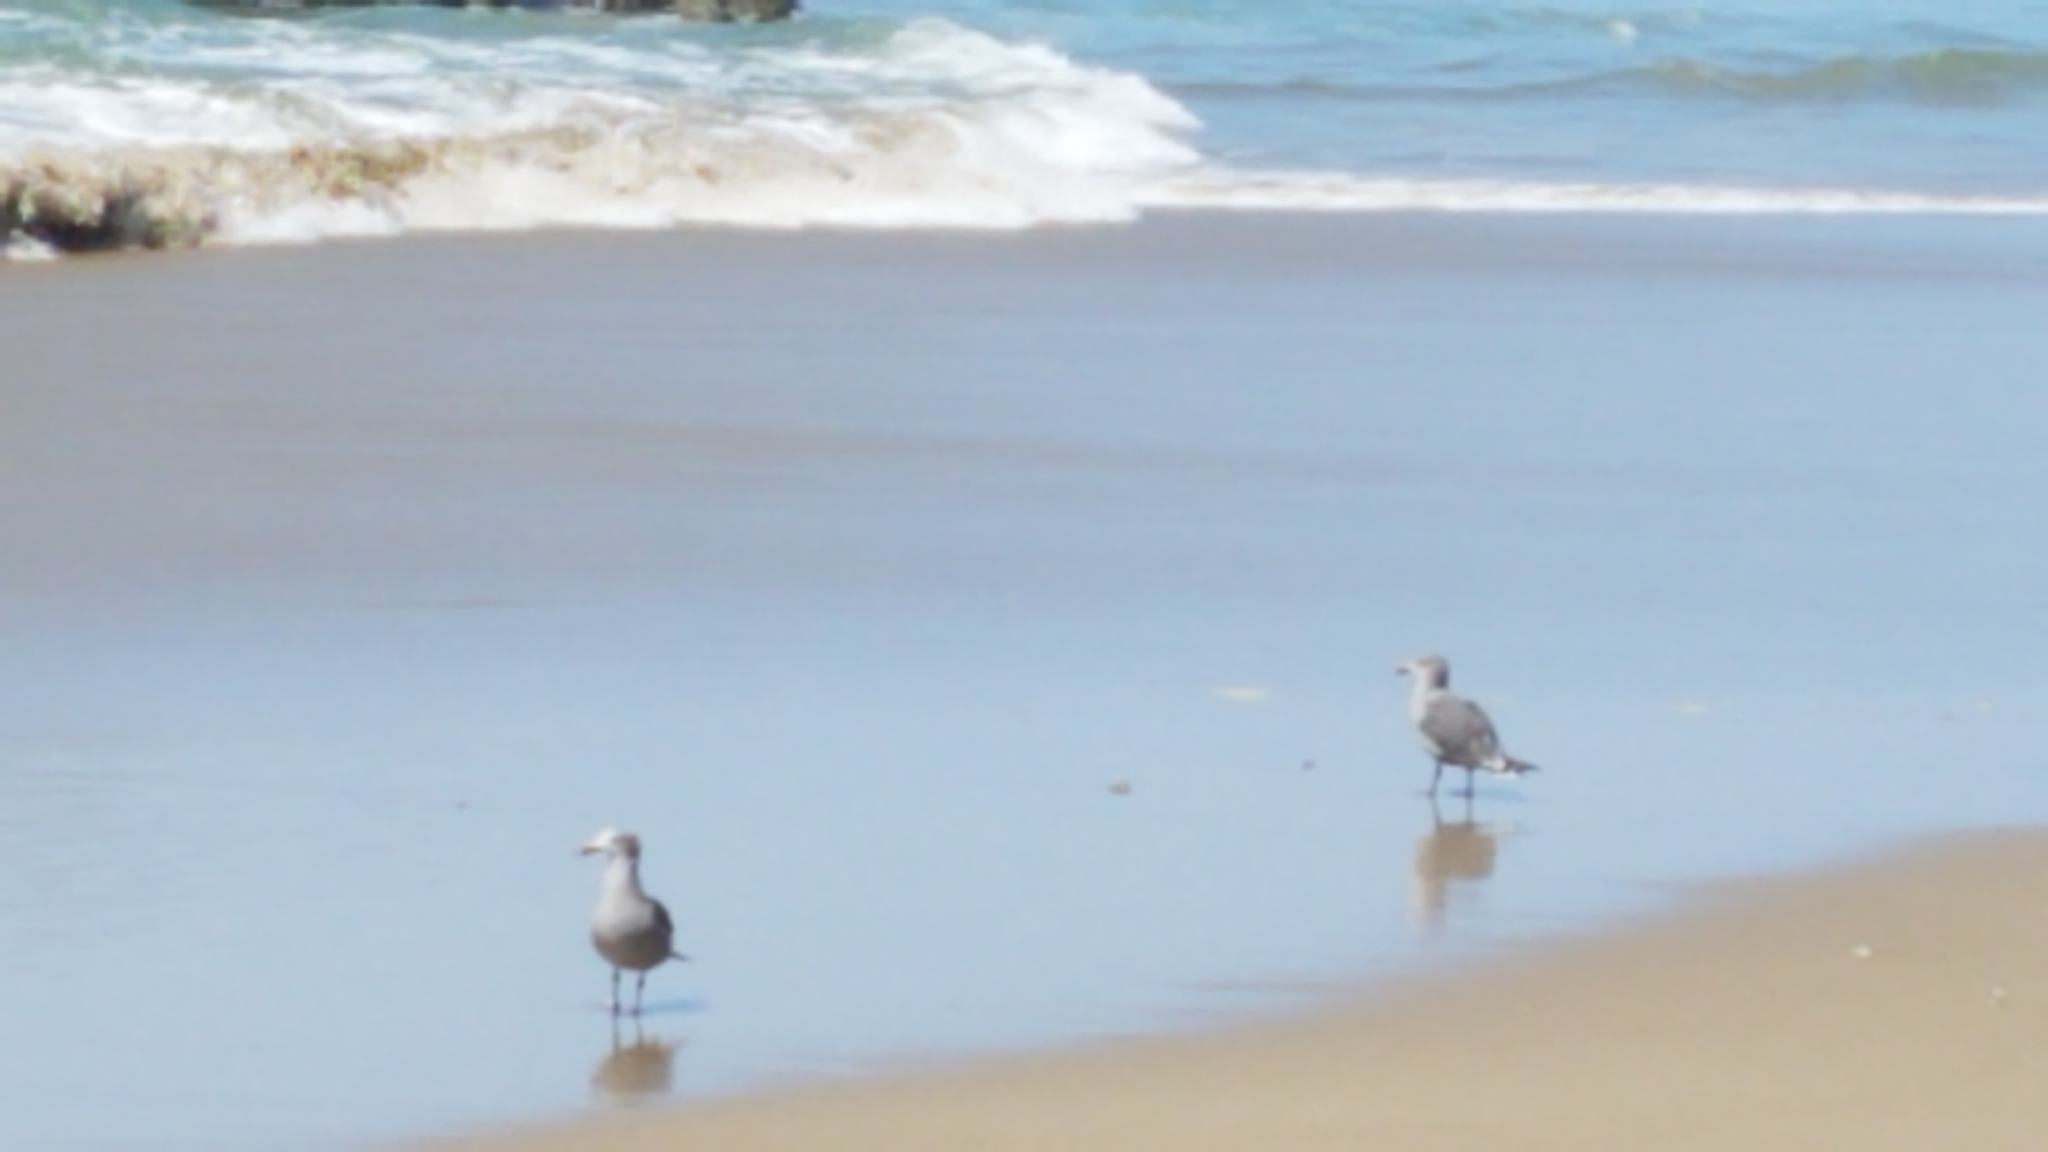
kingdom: Animalia
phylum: Chordata
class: Aves
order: Charadriiformes
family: Laridae
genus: Larus
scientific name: Larus heermanni
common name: Heermann's gull
